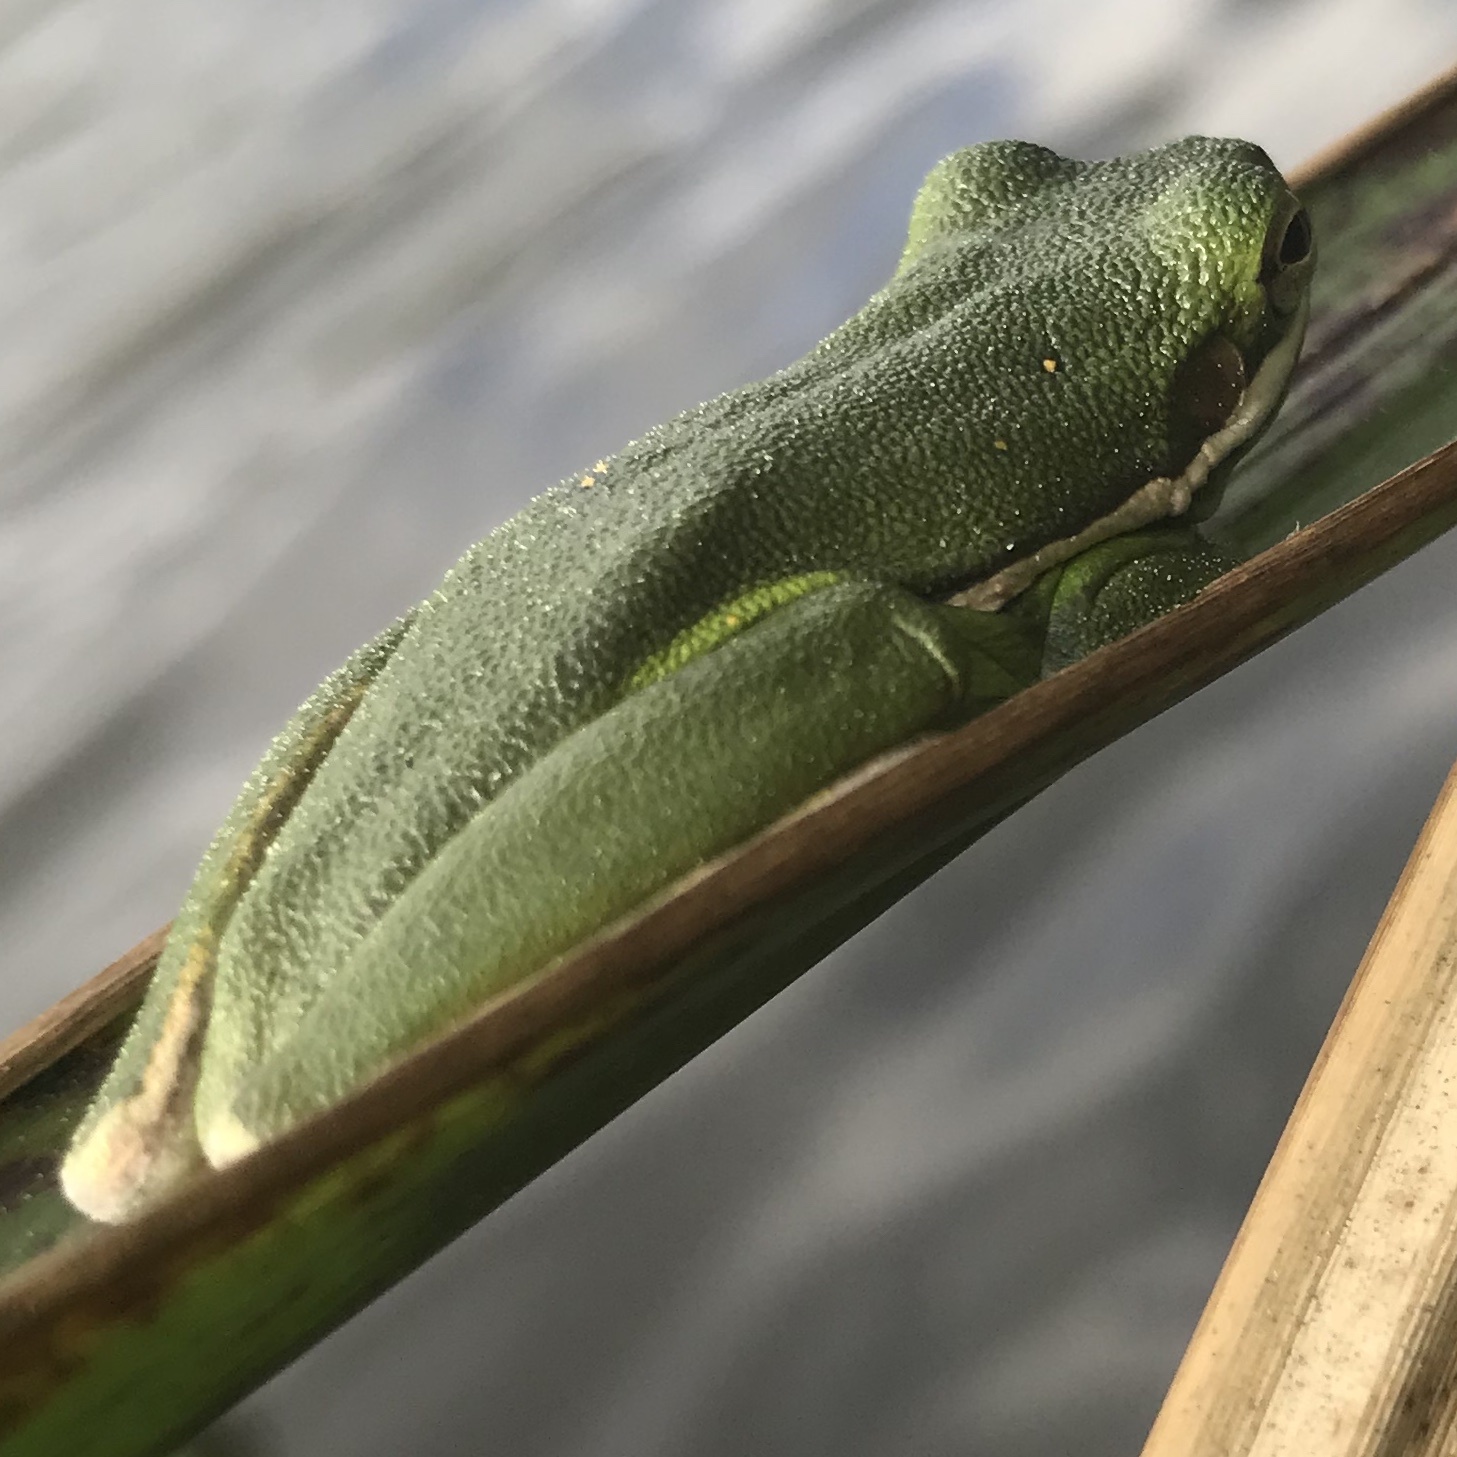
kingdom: Animalia
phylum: Chordata
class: Amphibia
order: Anura
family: Hylidae
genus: Dryophytes
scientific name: Dryophytes cinereus
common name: Green treefrog
